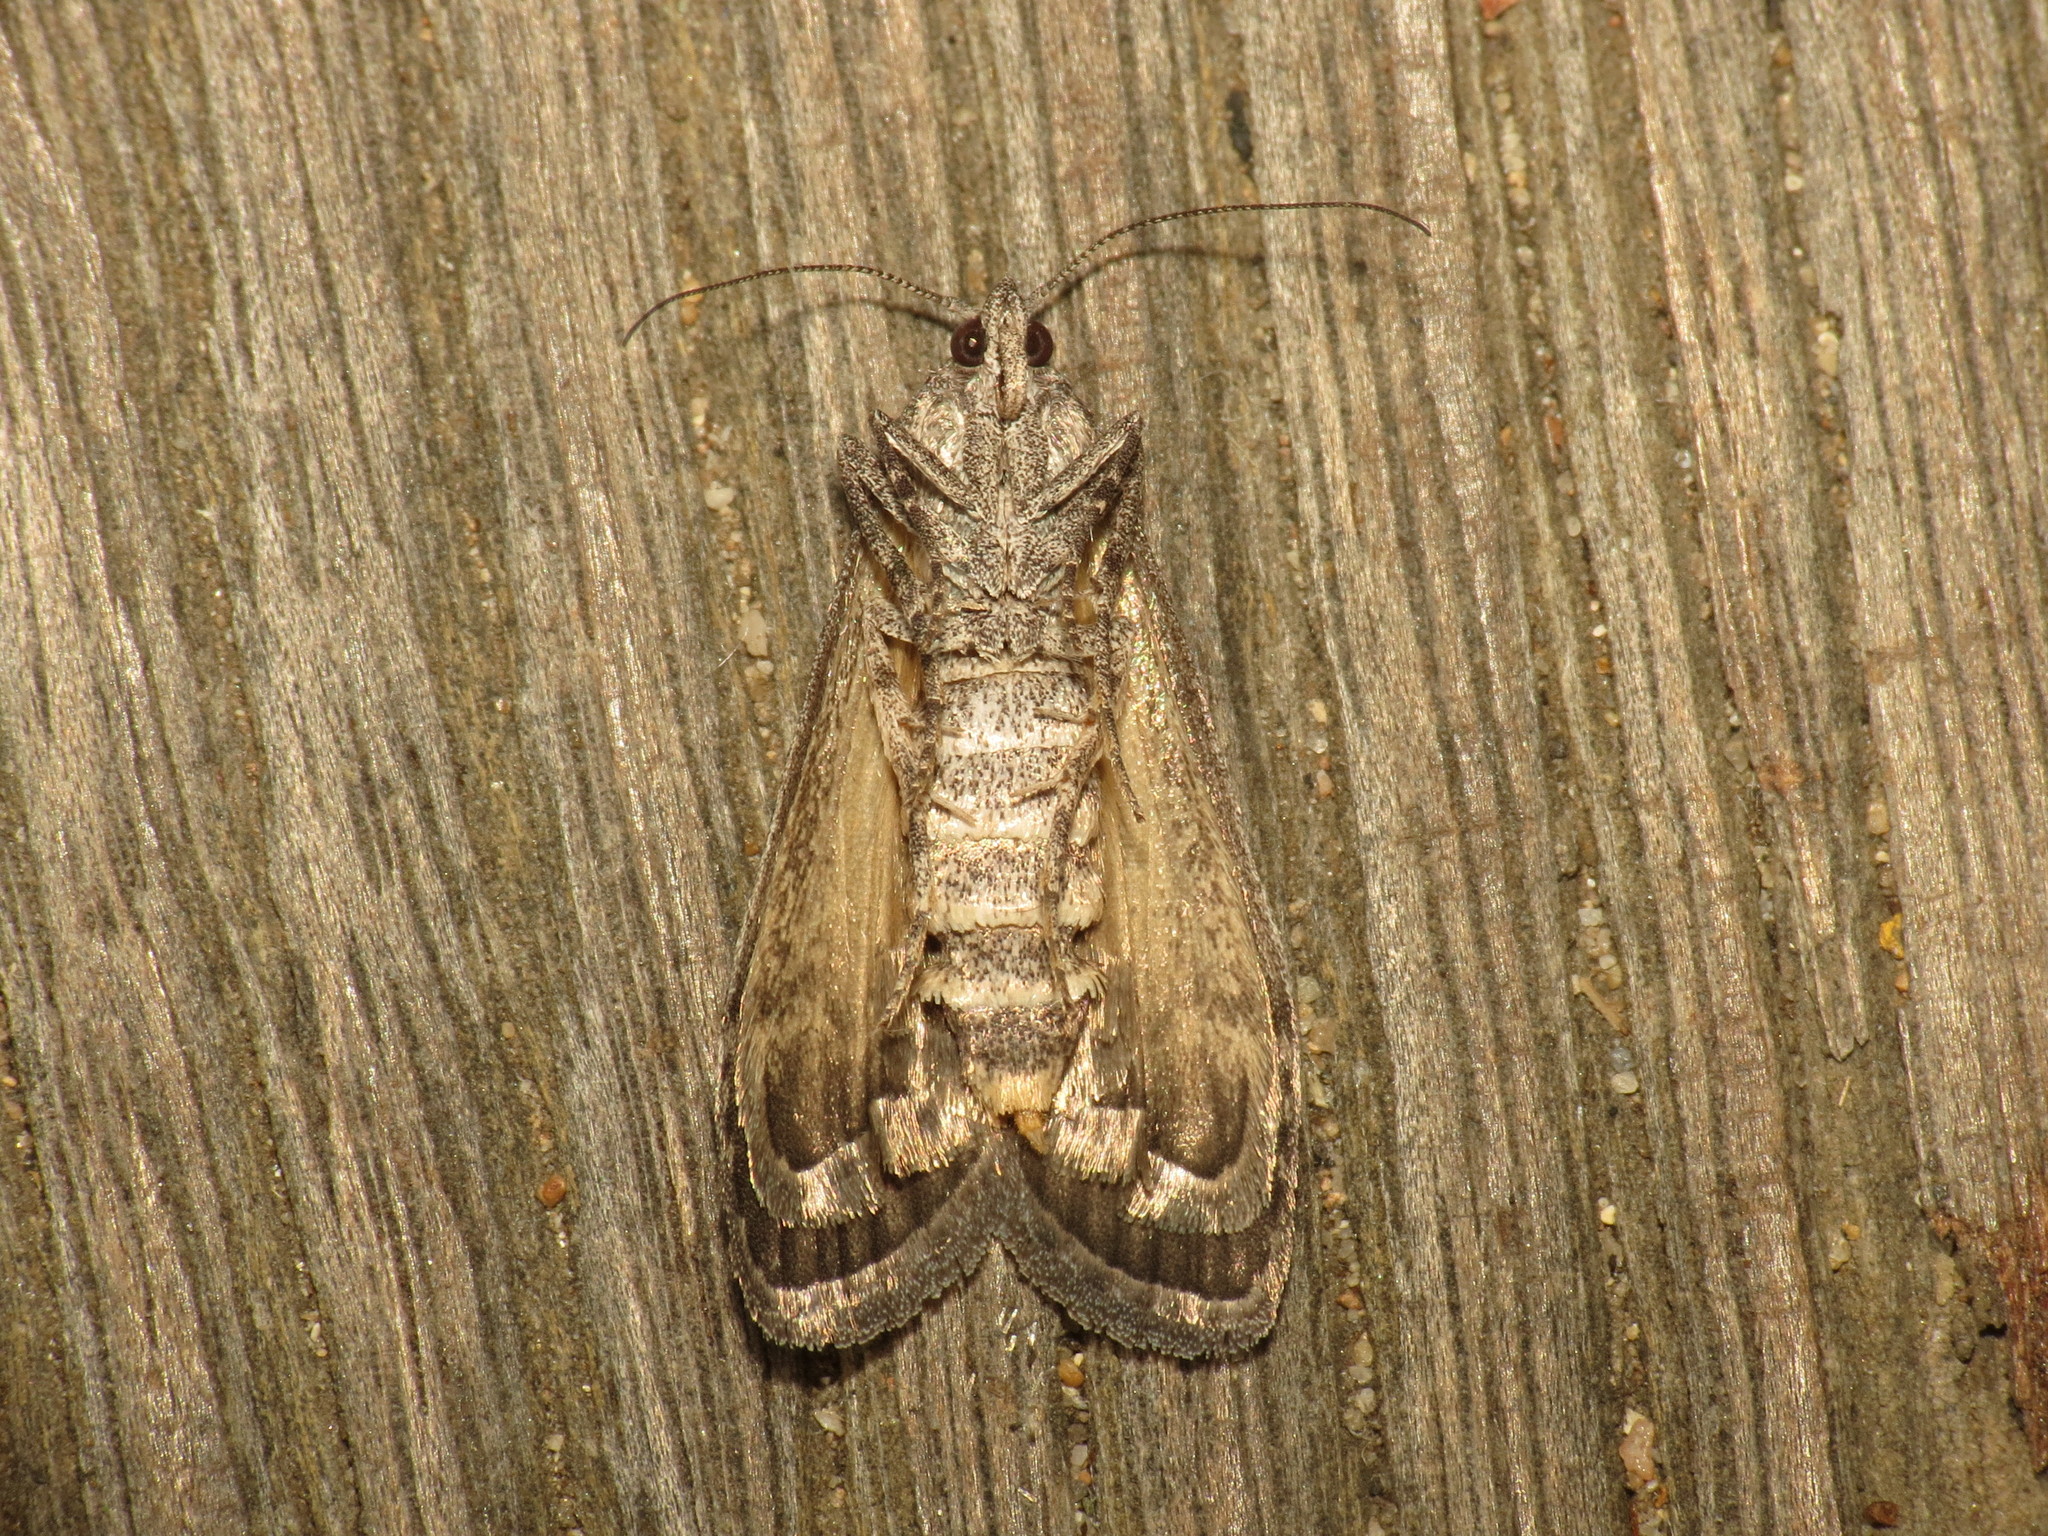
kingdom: Animalia
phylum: Arthropoda
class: Insecta
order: Lepidoptera
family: Pyralidae
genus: Heteromicta
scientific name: Heteromicta pachytera
